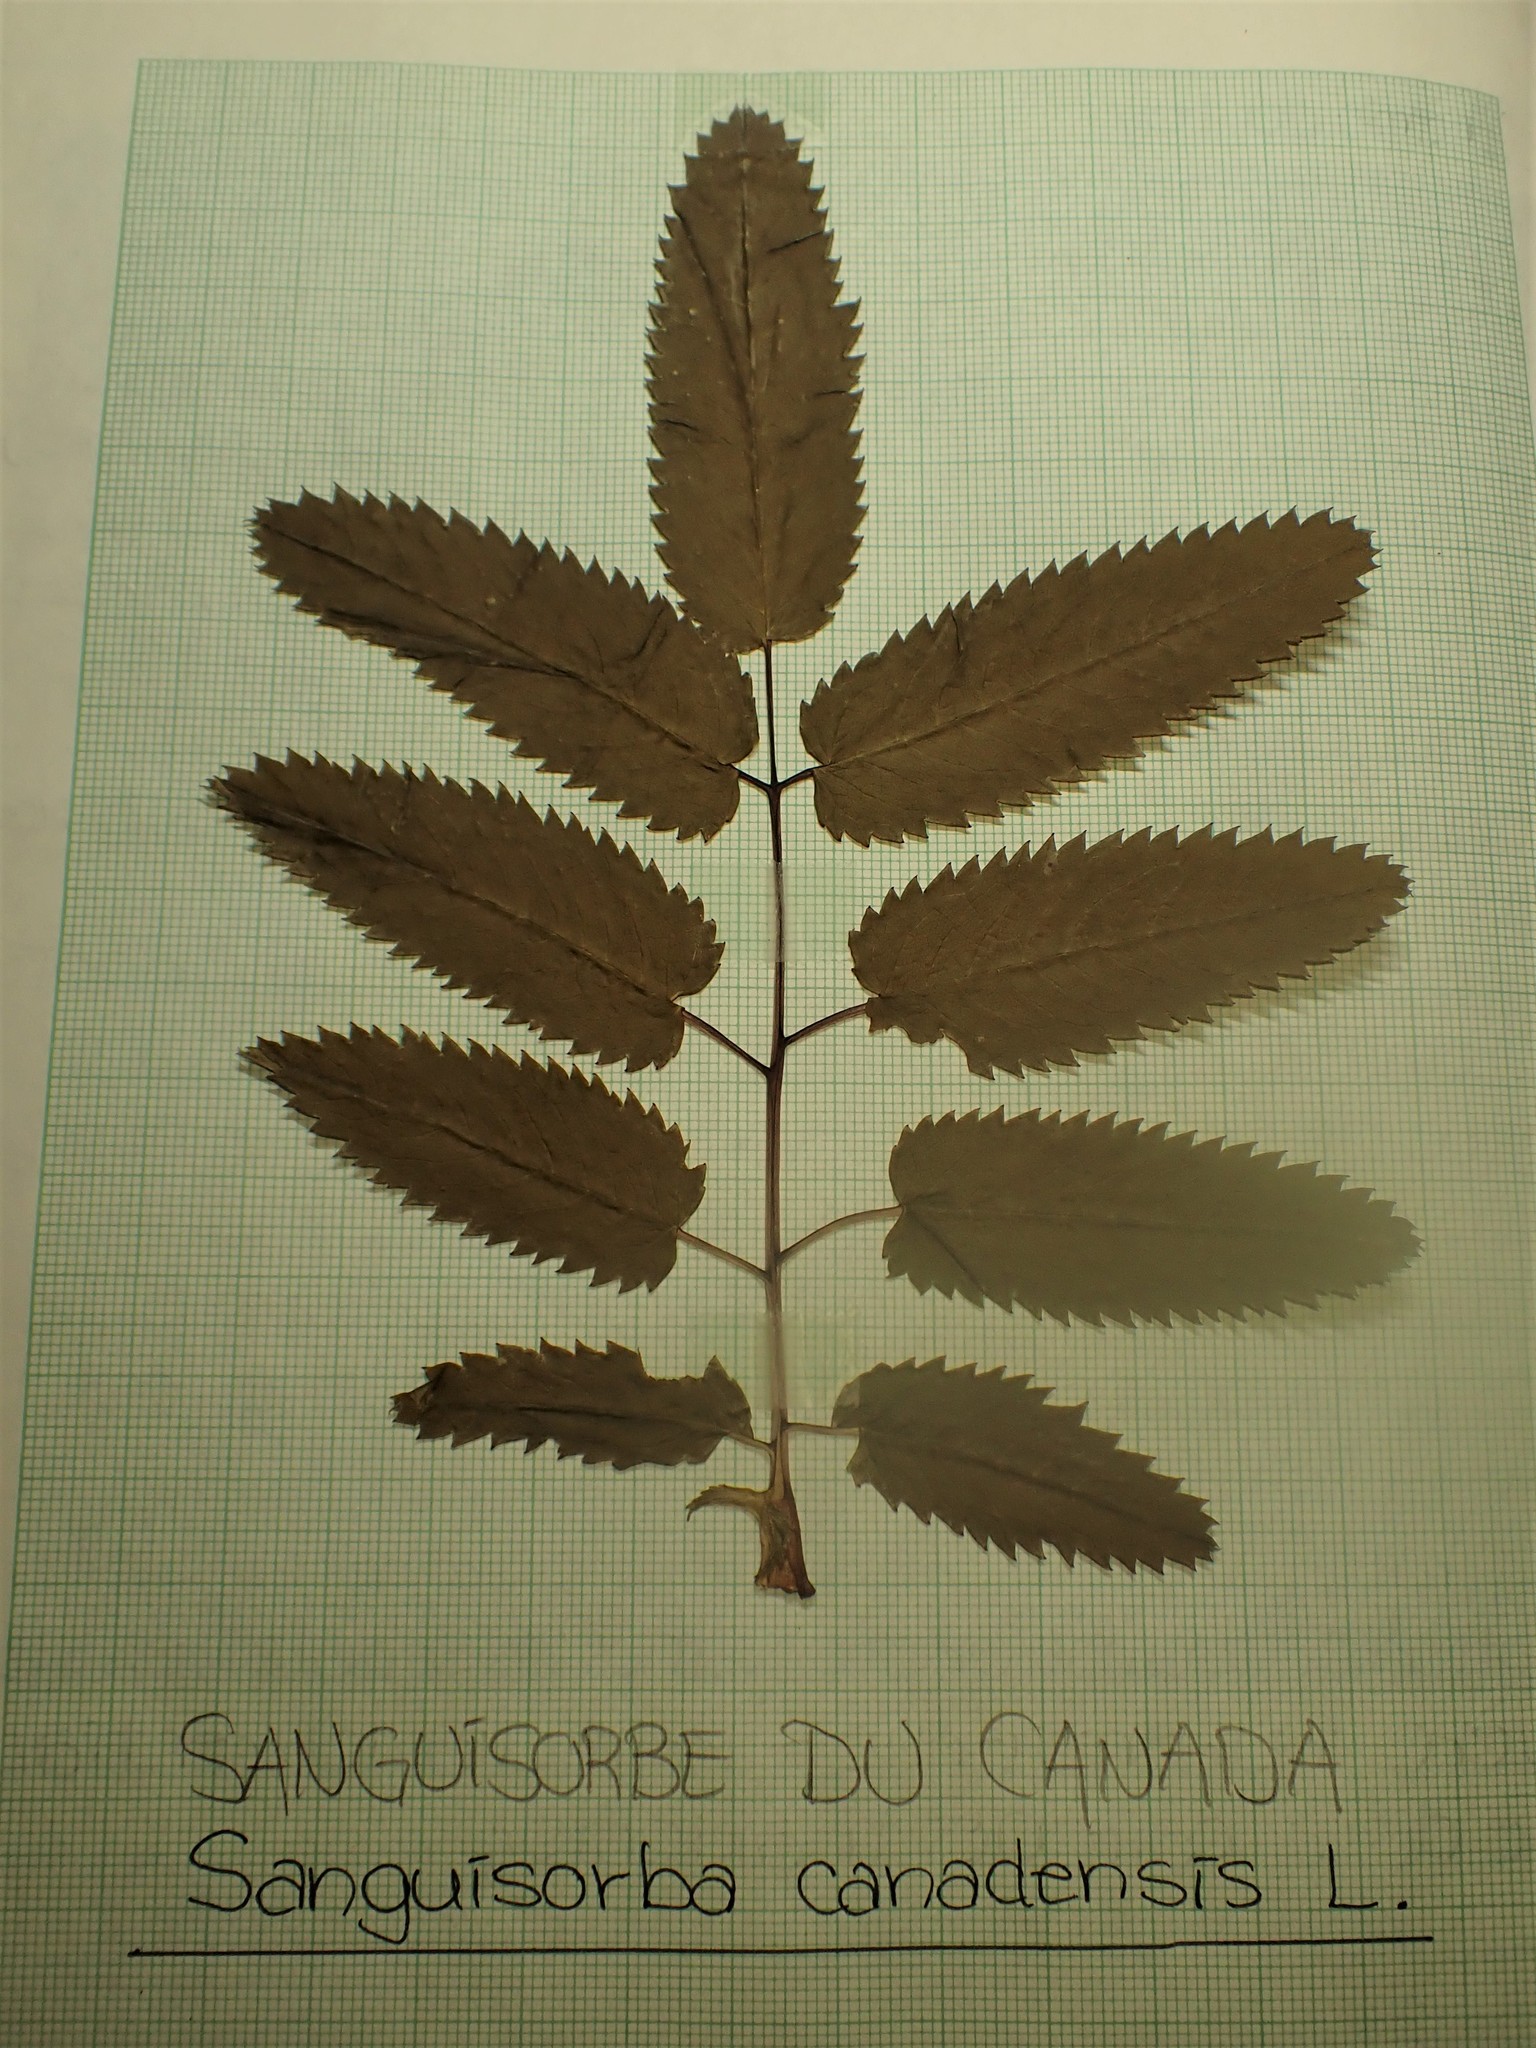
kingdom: Plantae
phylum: Tracheophyta
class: Magnoliopsida
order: Rosales
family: Rosaceae
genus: Sanguisorba
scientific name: Sanguisorba canadensis
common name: White burnet
